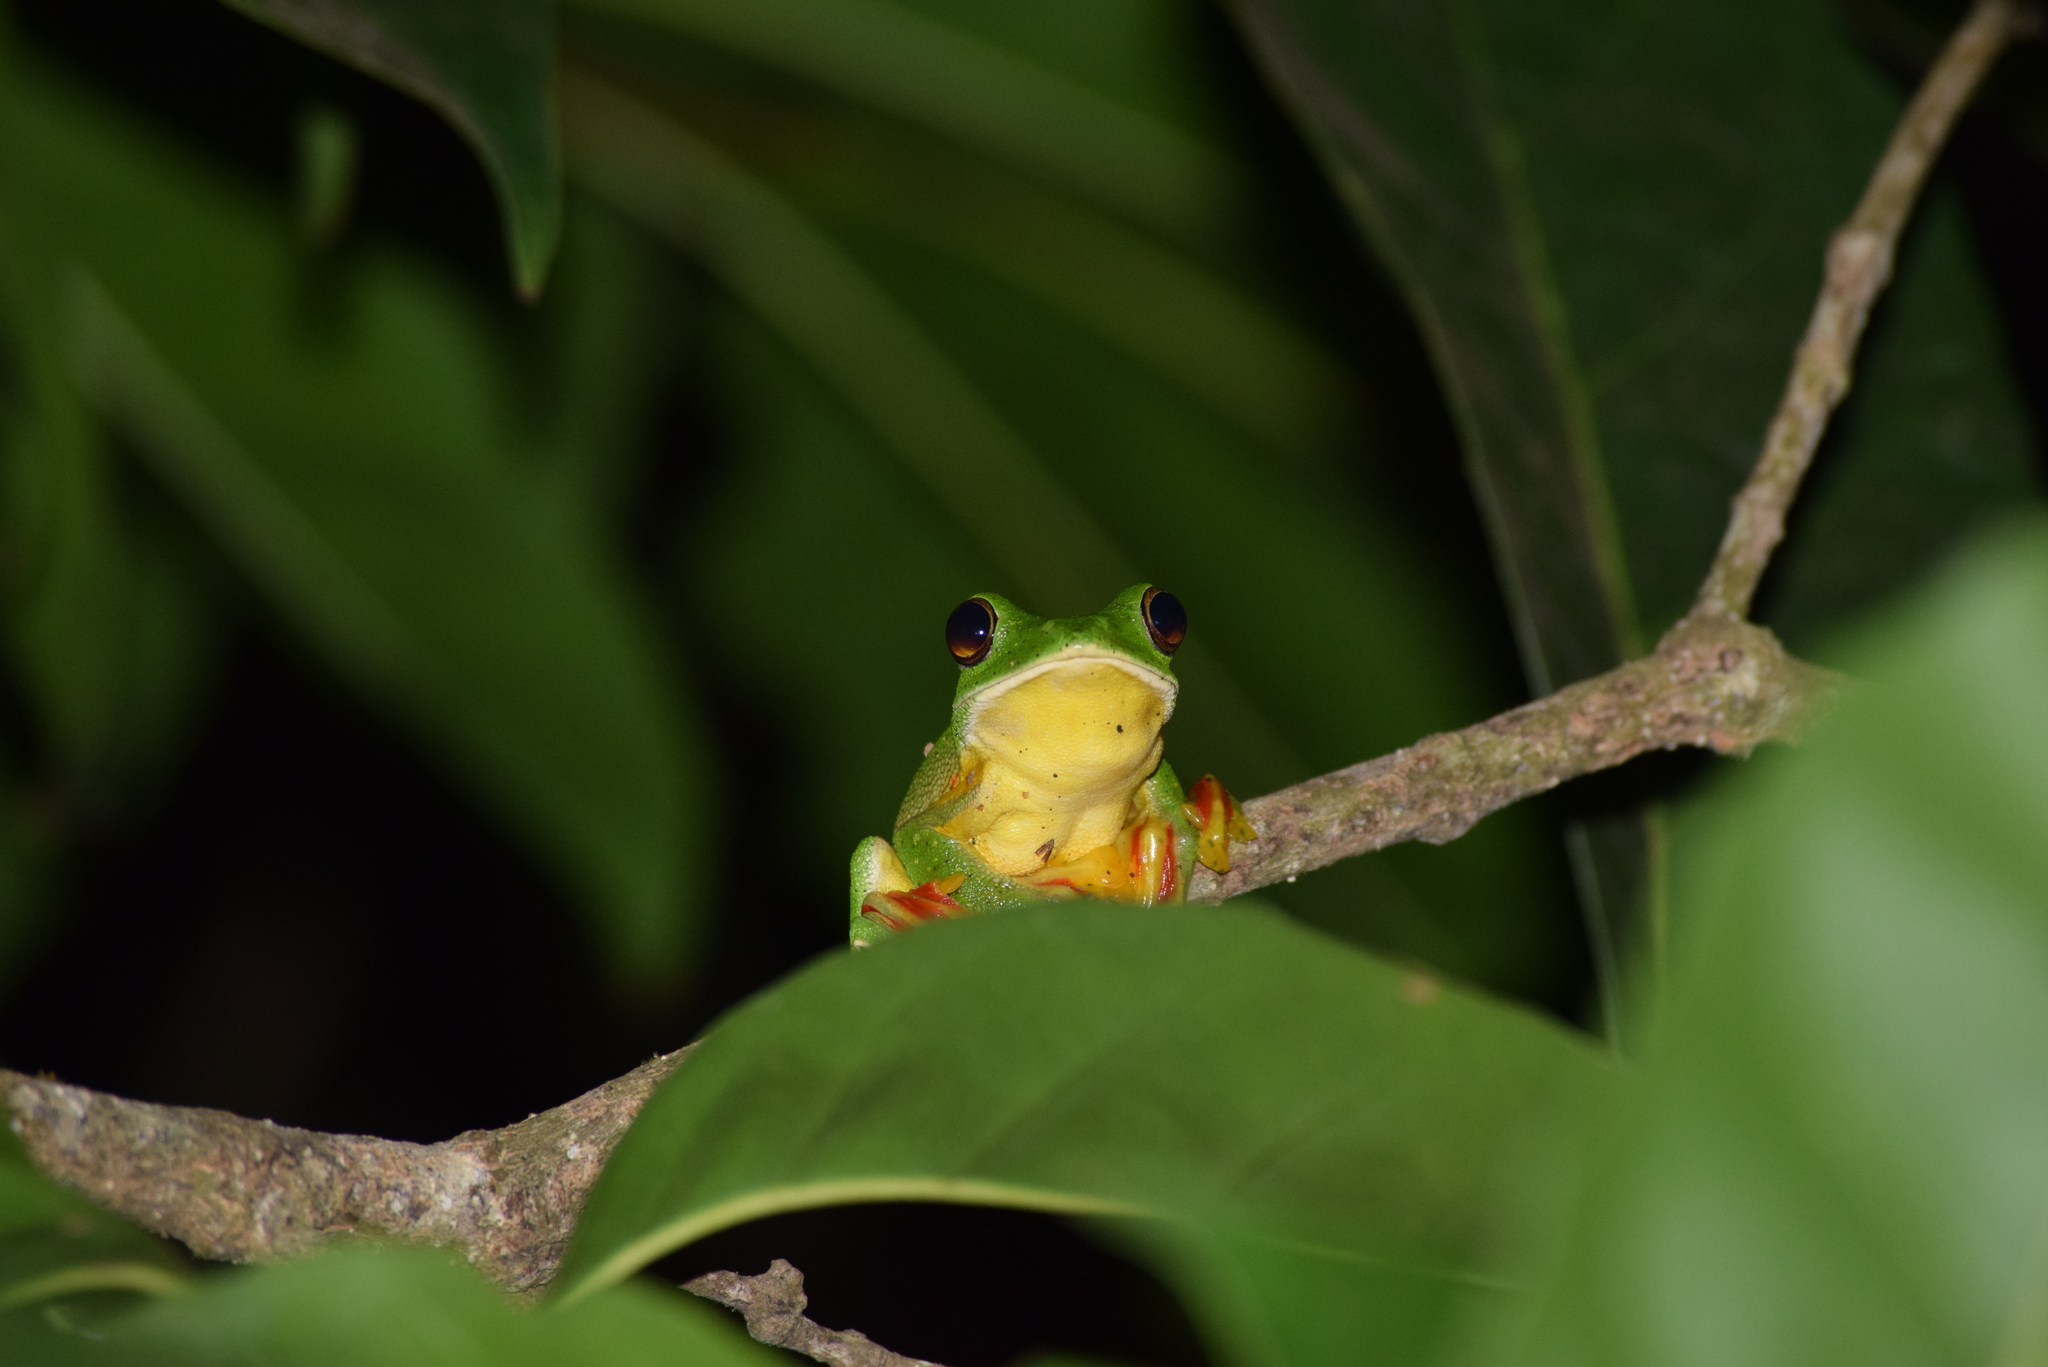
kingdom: Animalia
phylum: Chordata
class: Amphibia
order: Anura
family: Rhacophoridae
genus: Rhacophorus
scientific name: Rhacophorus malabaricus
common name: Malabar gliding frog
